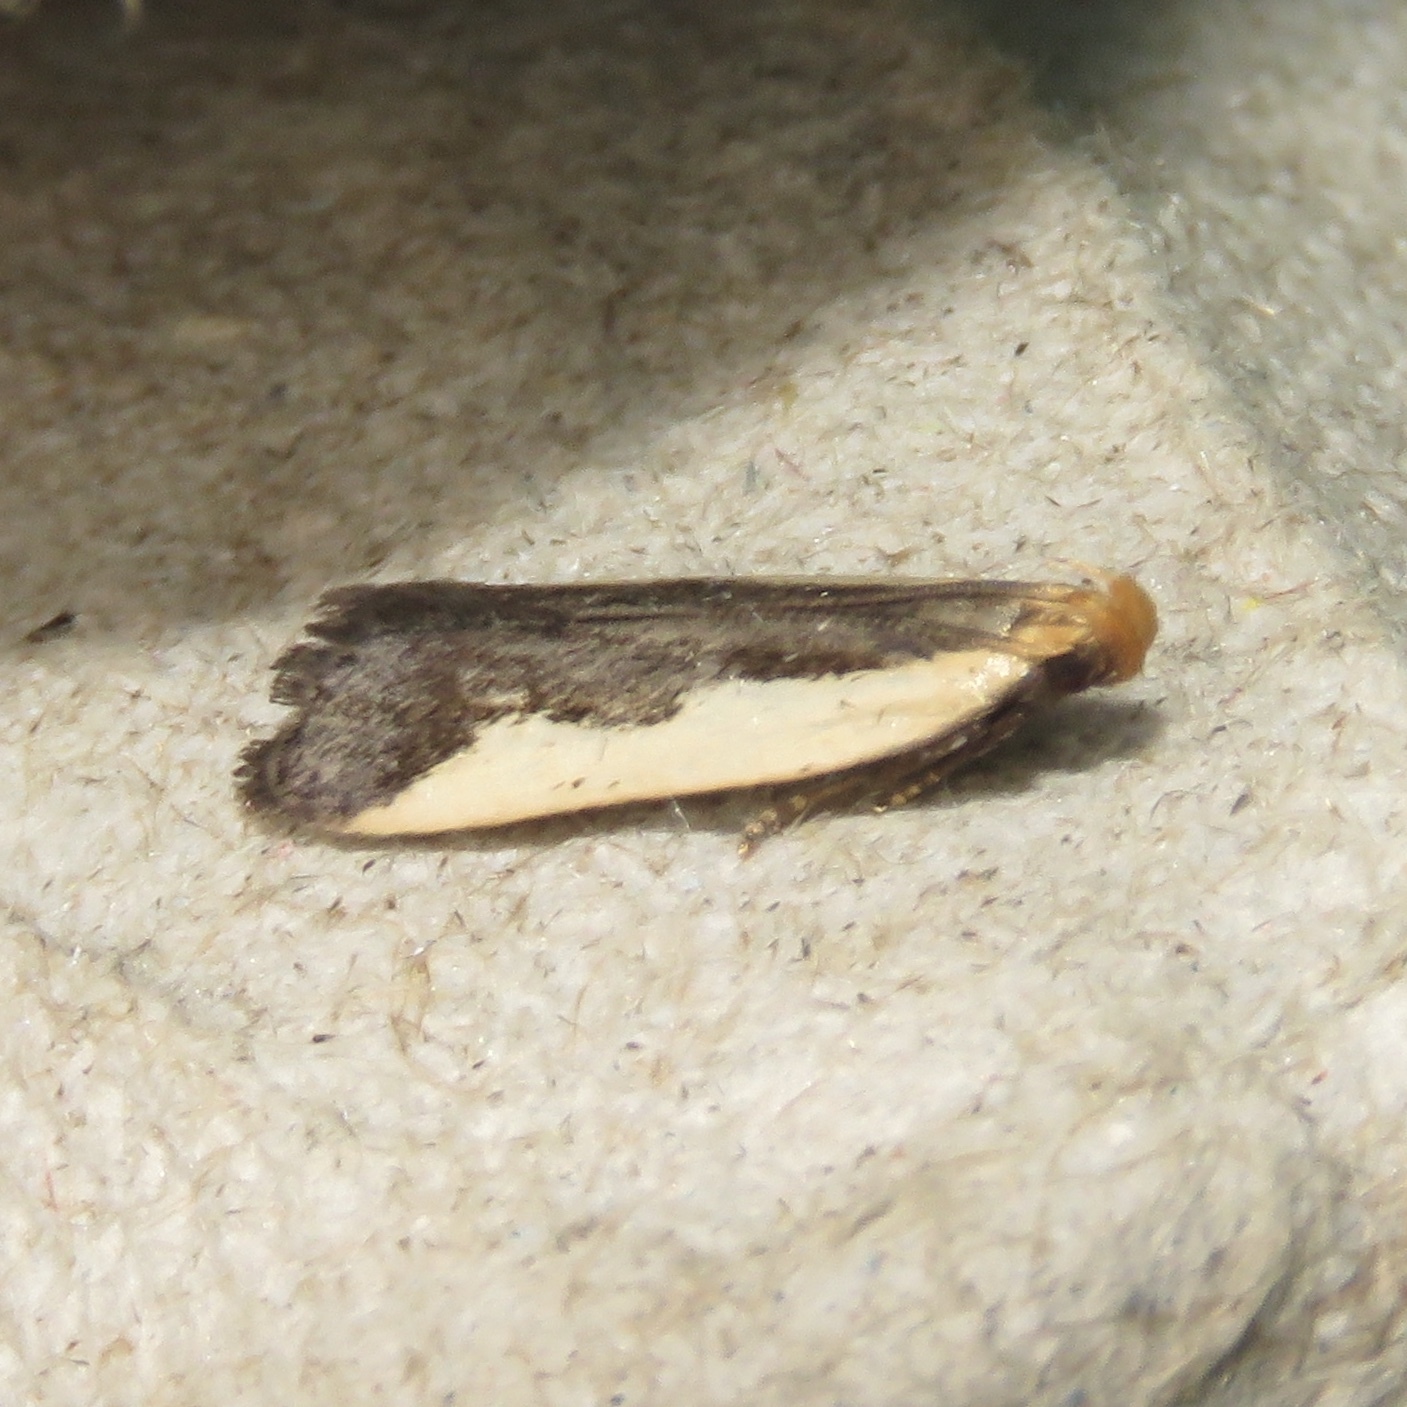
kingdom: Animalia
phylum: Arthropoda
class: Insecta
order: Lepidoptera
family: Gelechiidae
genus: Dichomeris
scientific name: Dichomeris inserrata
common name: Indented dichomeris moth
